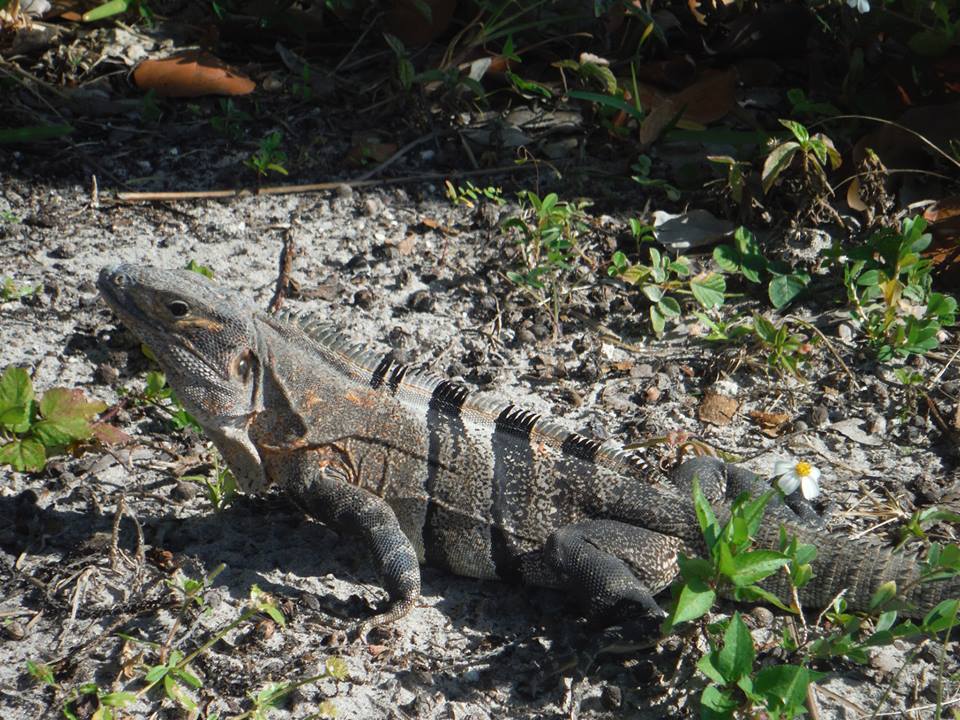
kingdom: Animalia
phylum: Chordata
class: Squamata
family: Iguanidae
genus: Ctenosaura
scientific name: Ctenosaura similis
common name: Black spiny-tailed iguana
